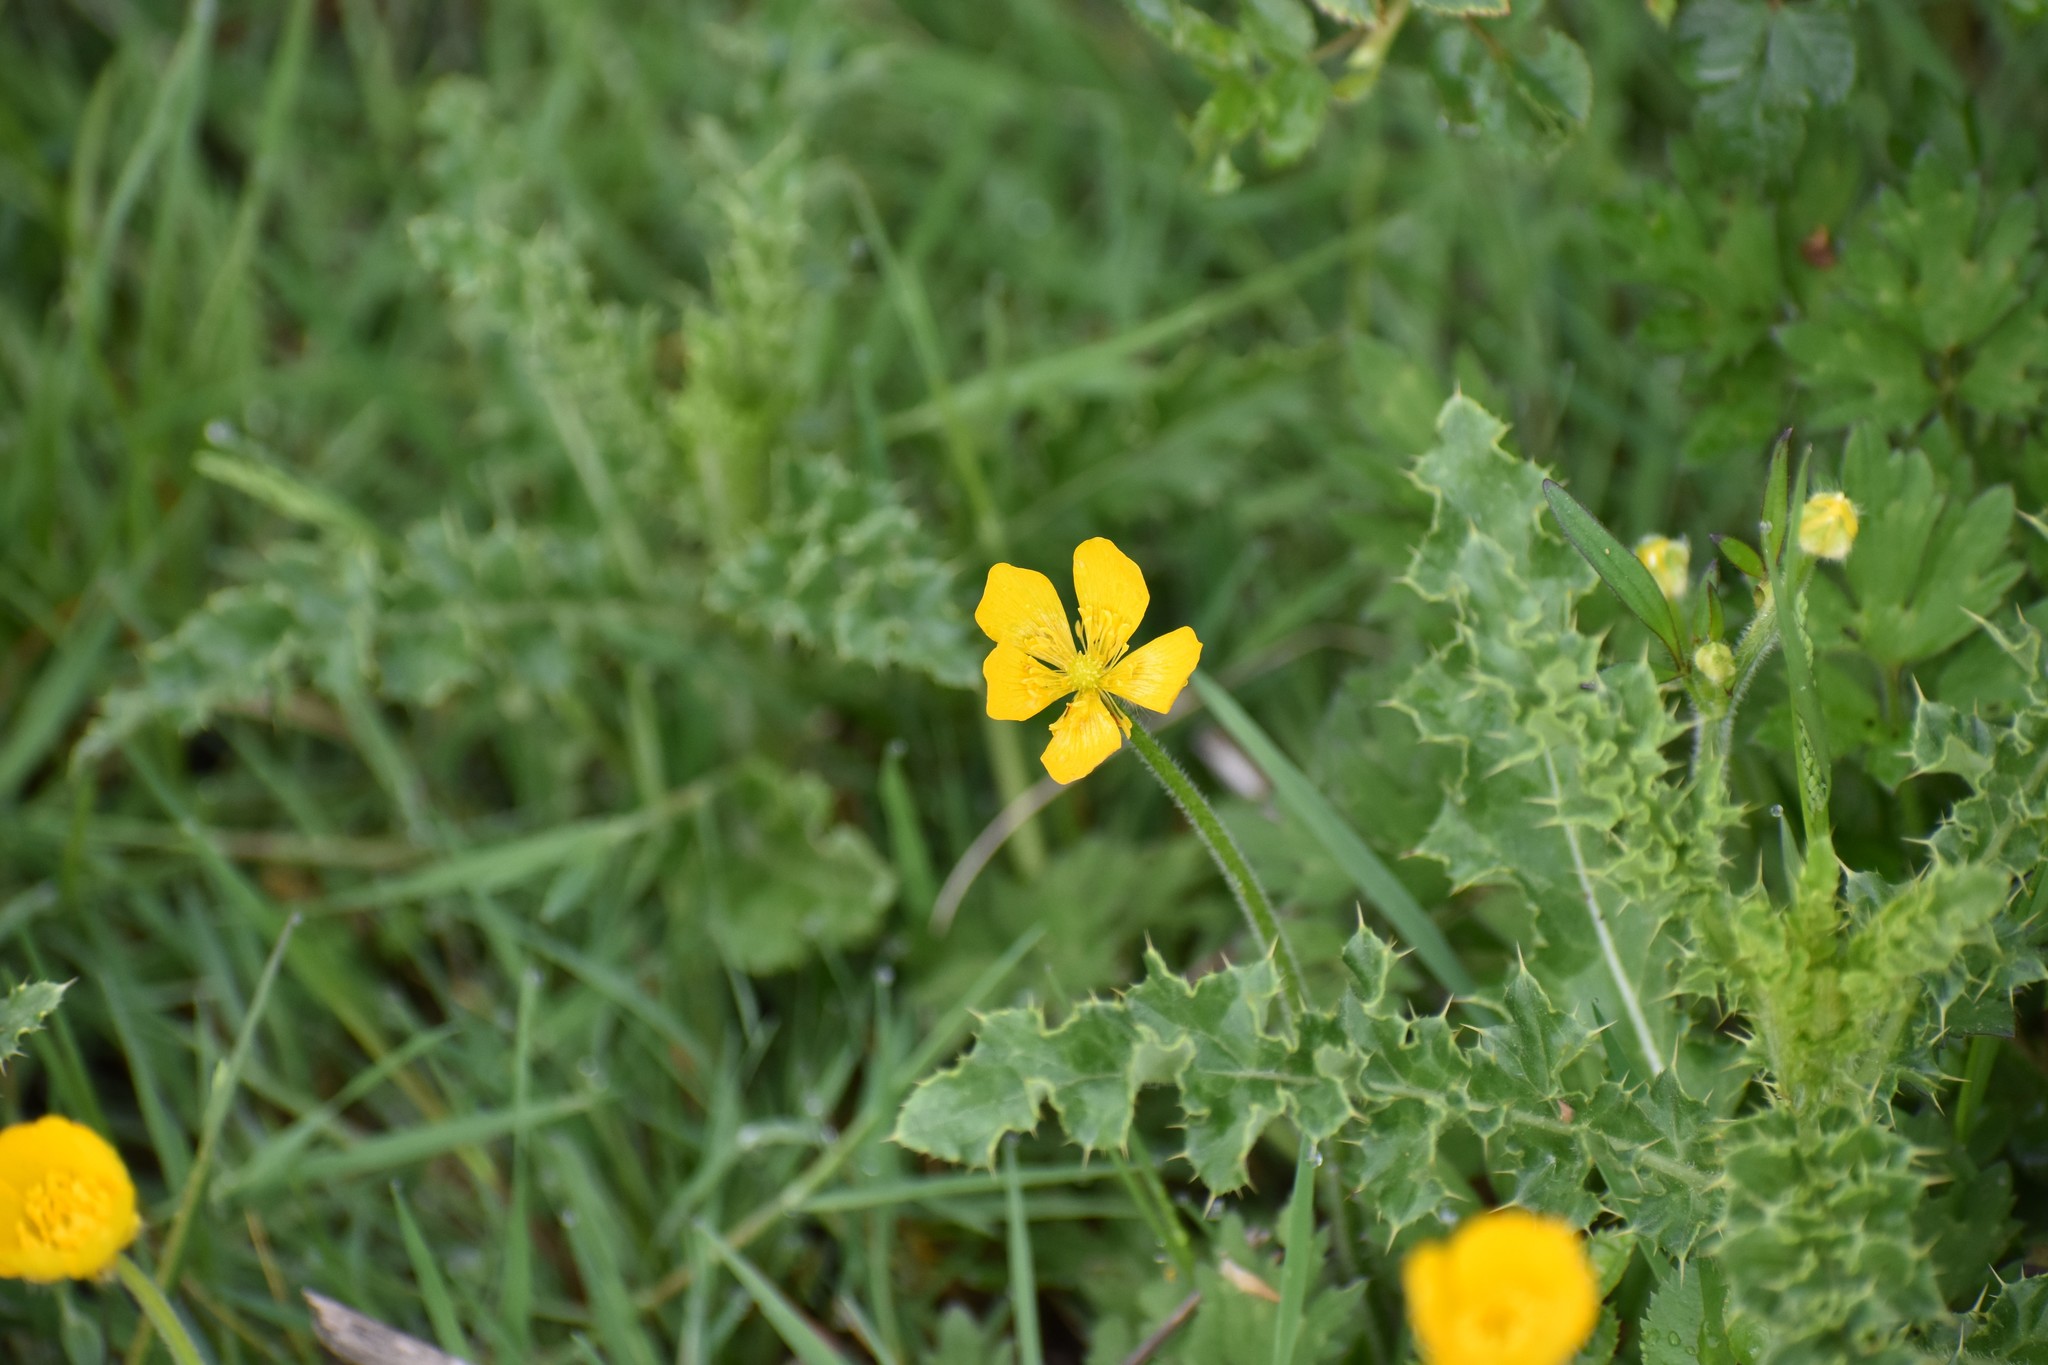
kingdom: Plantae
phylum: Tracheophyta
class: Magnoliopsida
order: Ranunculales
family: Ranunculaceae
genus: Ranunculus
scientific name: Ranunculus occidentalis
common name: Western buttercup
